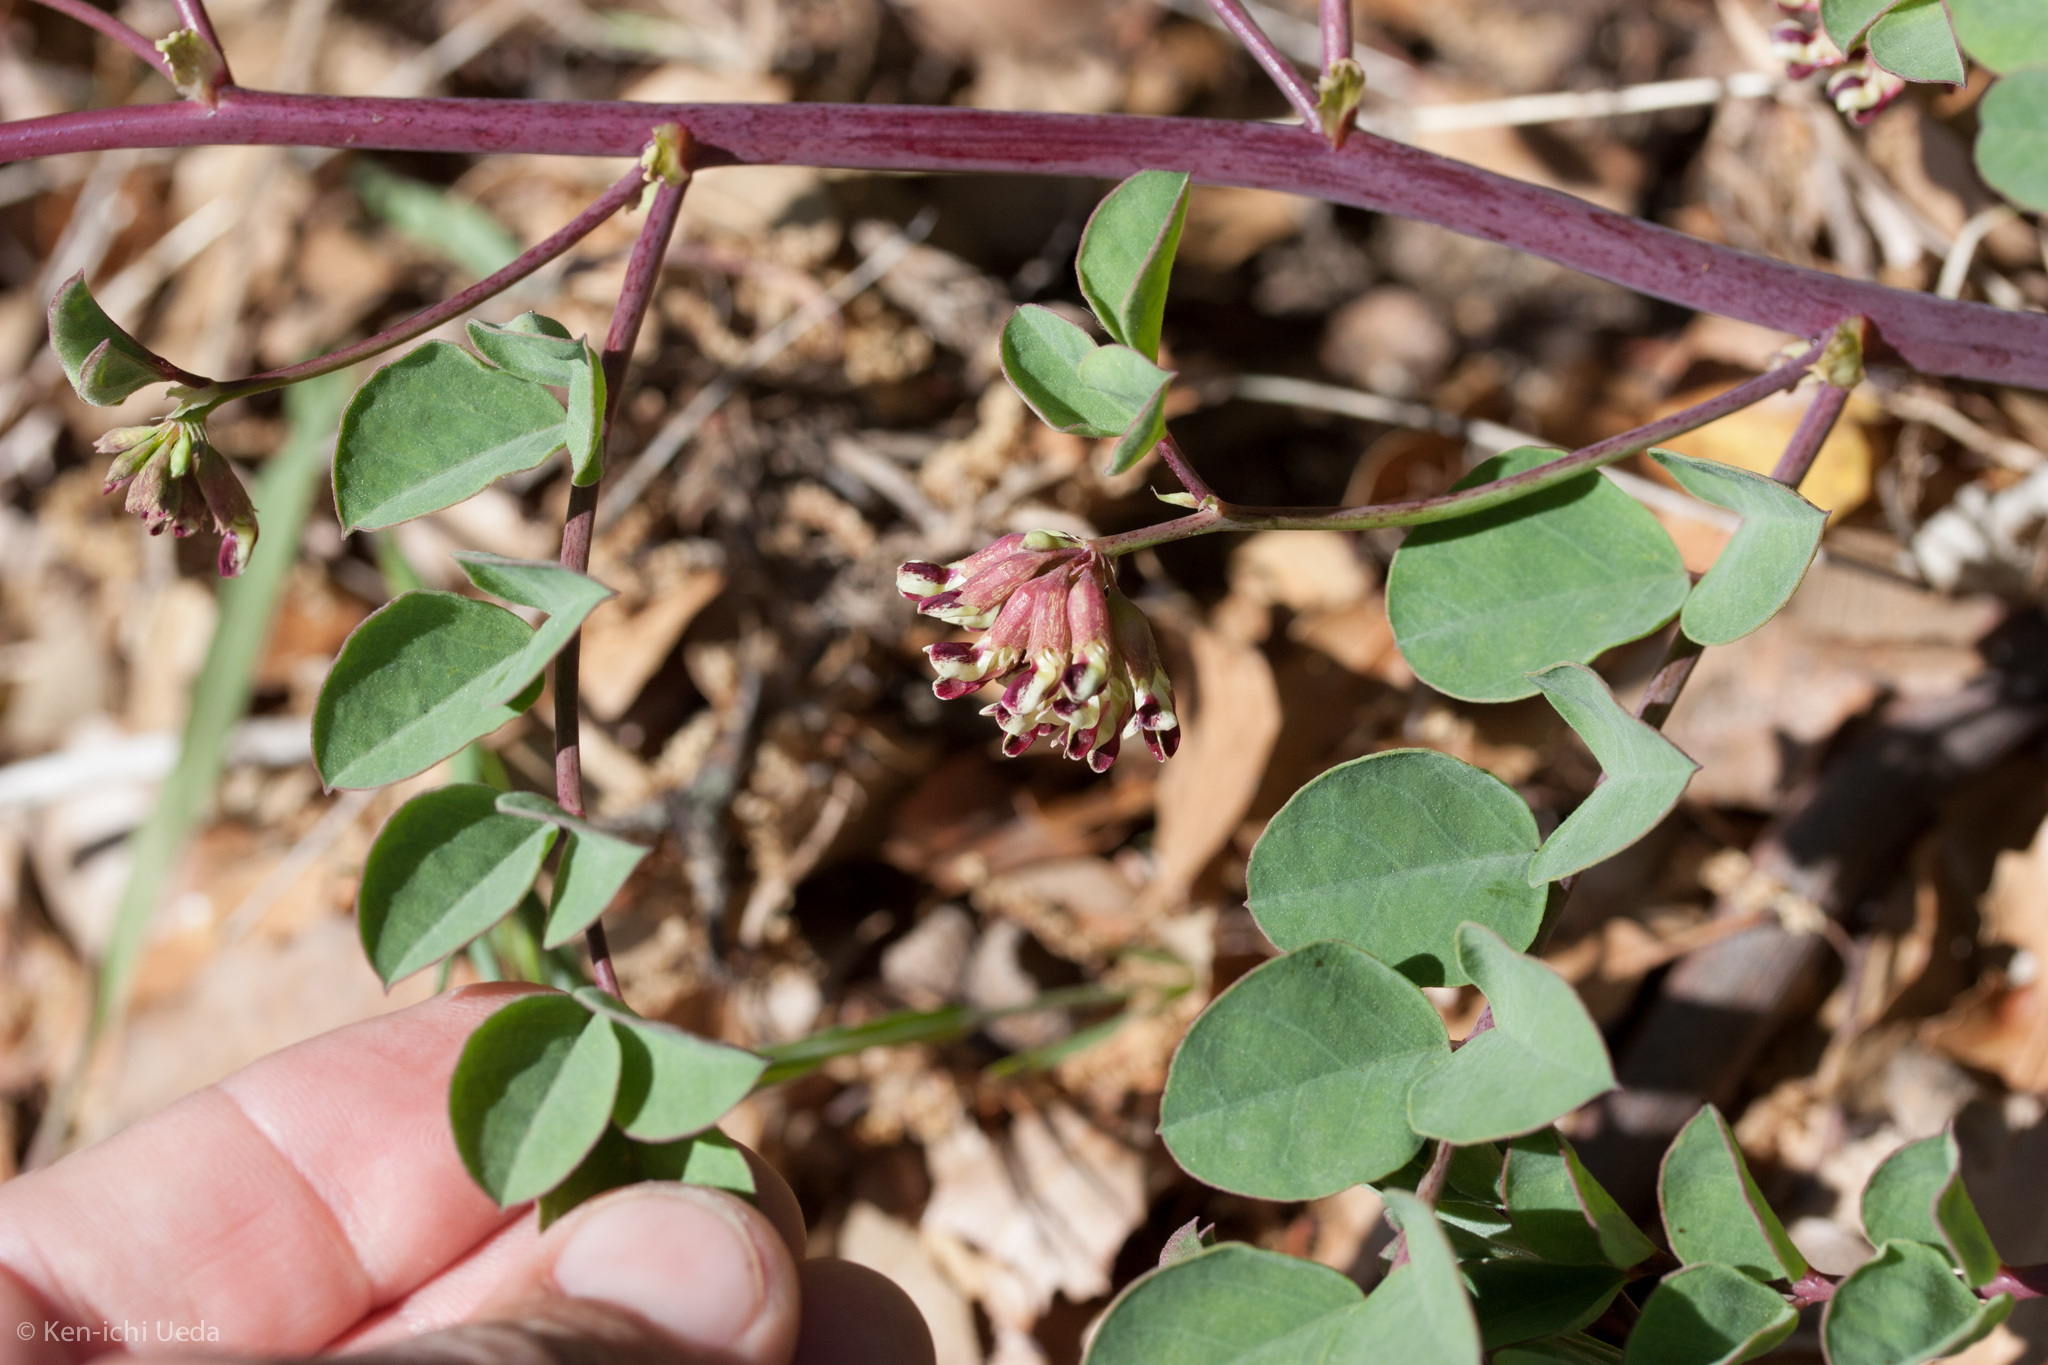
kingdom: Plantae
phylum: Tracheophyta
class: Magnoliopsida
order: Fabales
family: Fabaceae
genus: Hosackia
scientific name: Hosackia crassifolia
